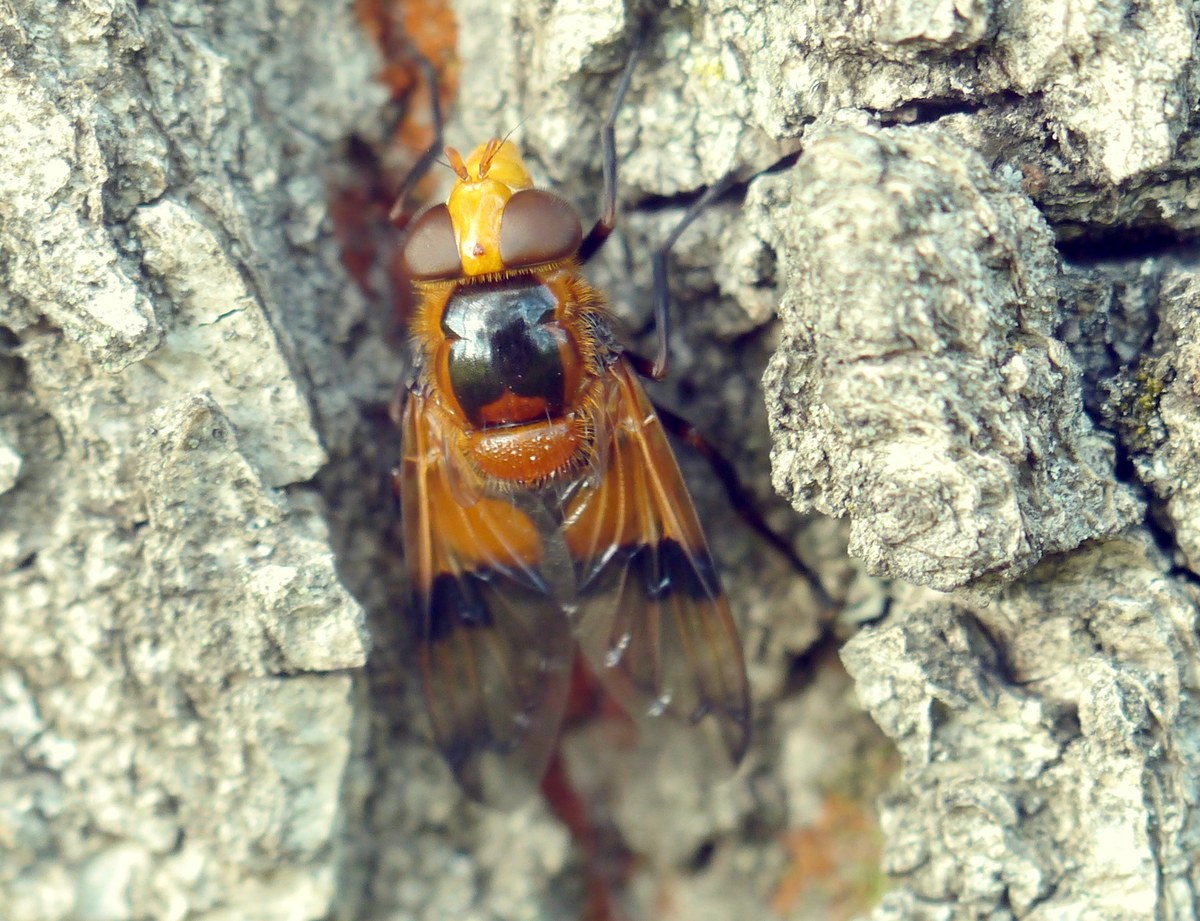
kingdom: Animalia
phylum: Arthropoda
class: Insecta
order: Diptera
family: Syrphidae
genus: Volucella
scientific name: Volucella inflata
